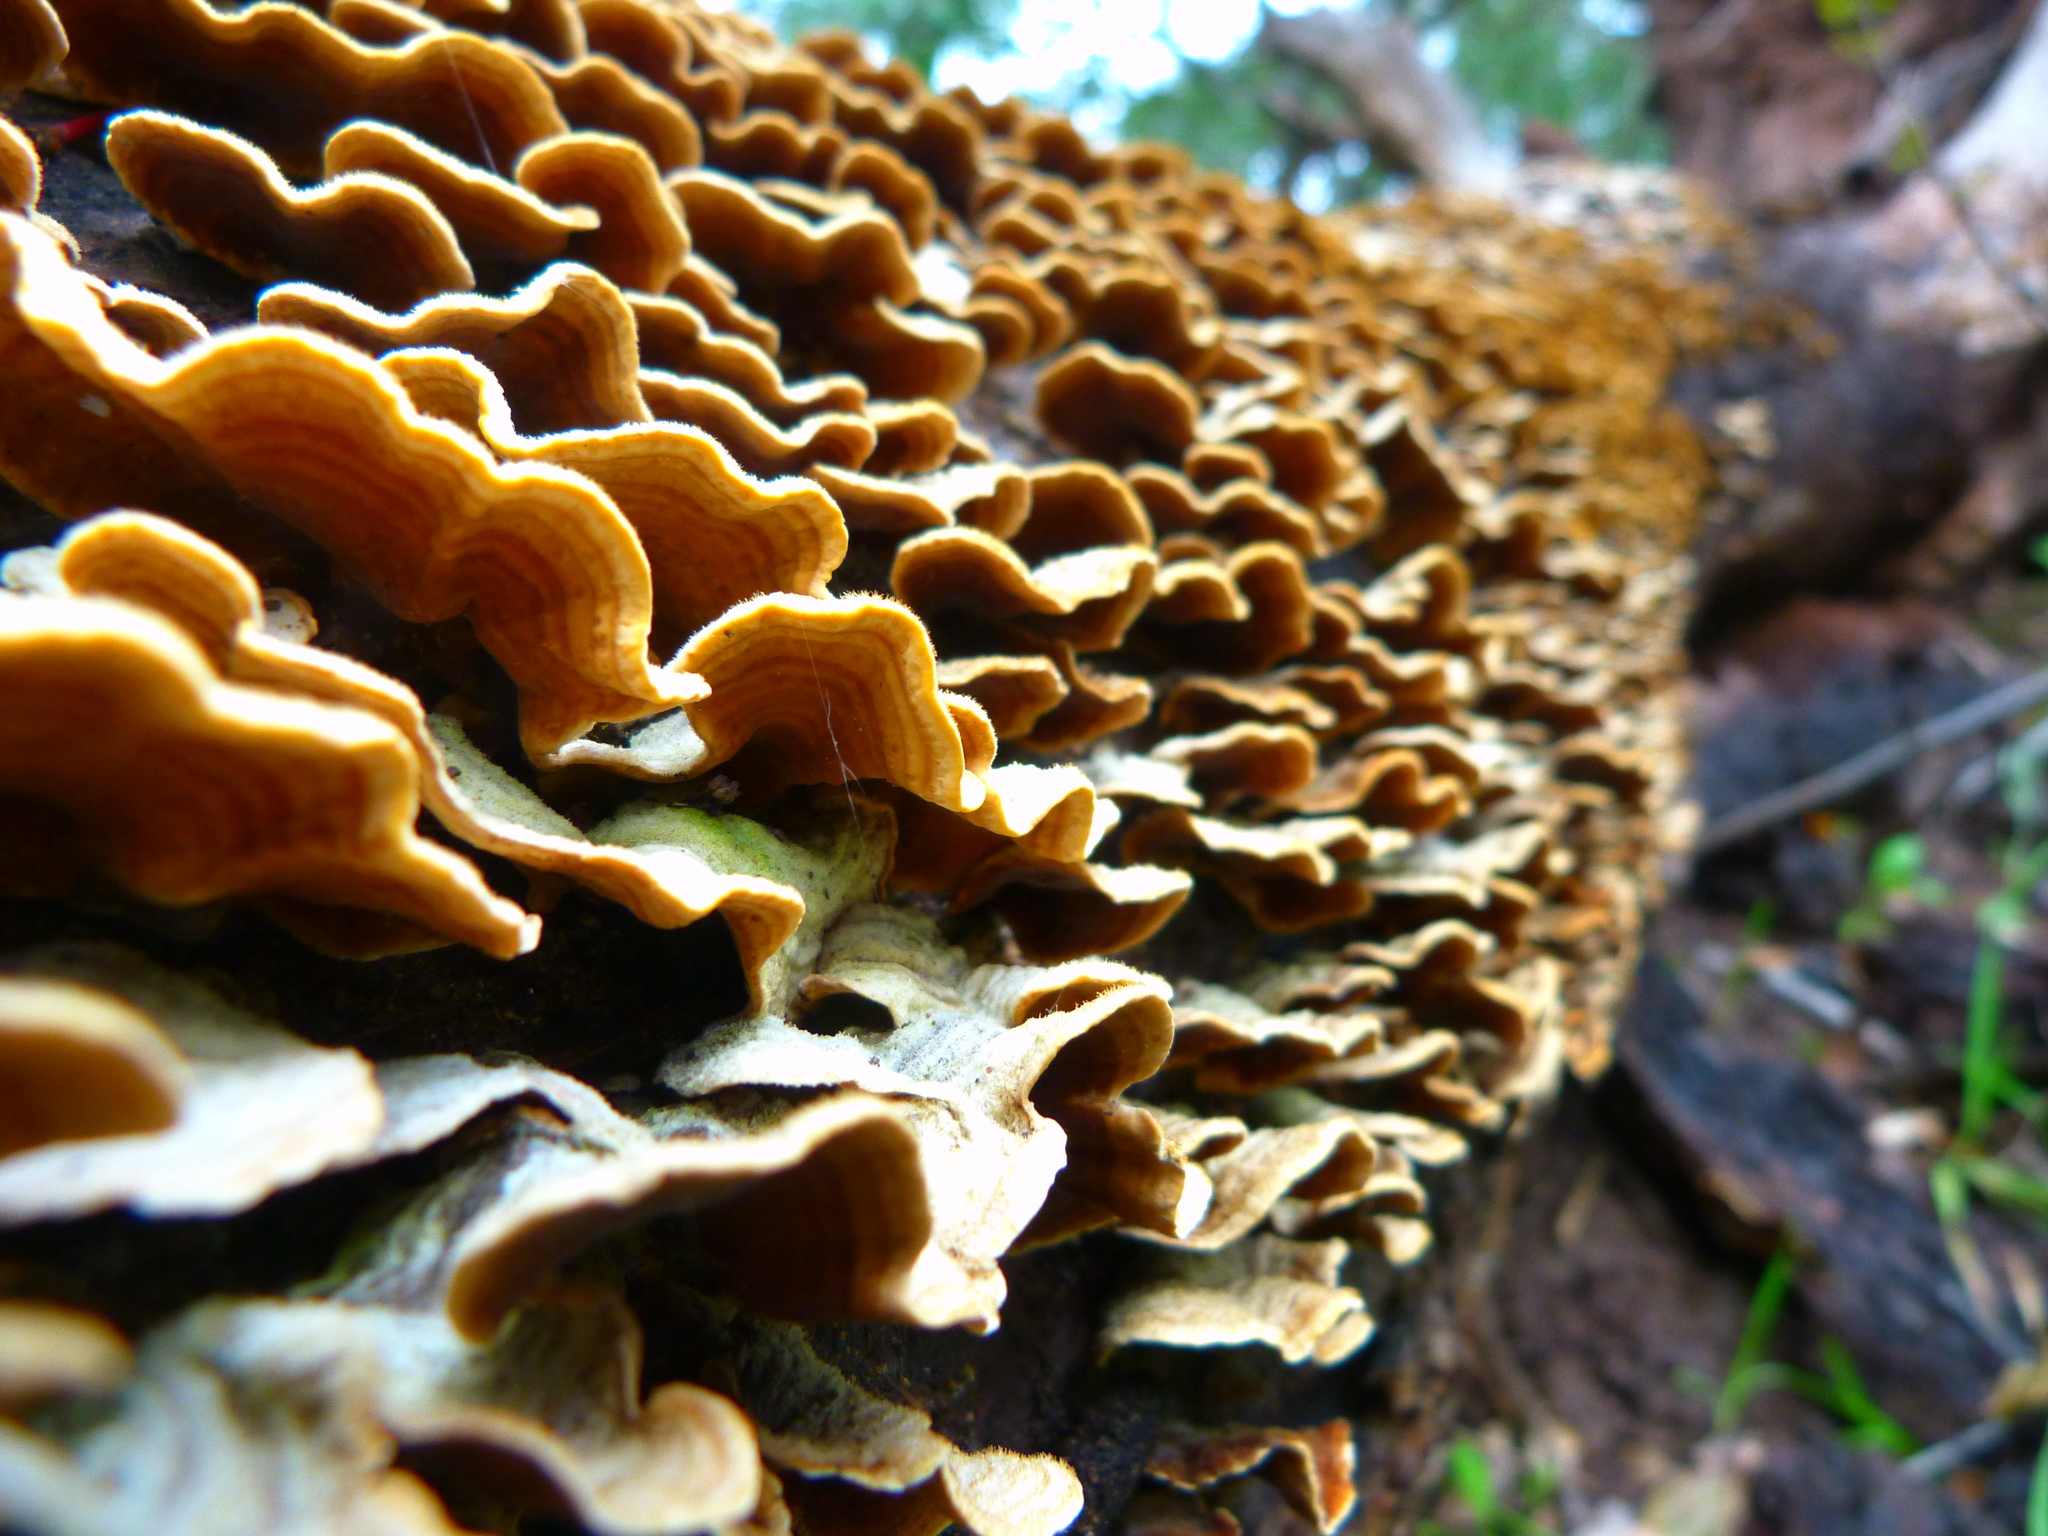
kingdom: Fungi
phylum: Basidiomycota
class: Agaricomycetes
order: Russulales
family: Stereaceae
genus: Stereum
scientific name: Stereum hirsutum
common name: Hairy curtain crust
